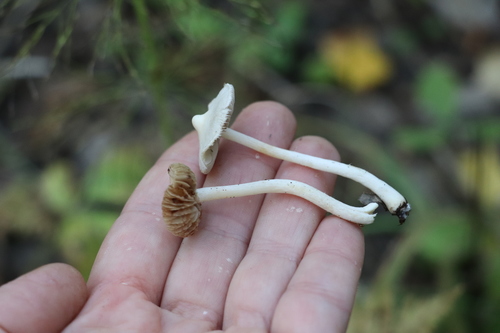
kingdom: Fungi
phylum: Basidiomycota
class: Agaricomycetes
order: Agaricales
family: Inocybaceae
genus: Inocybe
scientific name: Inocybe geophylla
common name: White fibrecap
